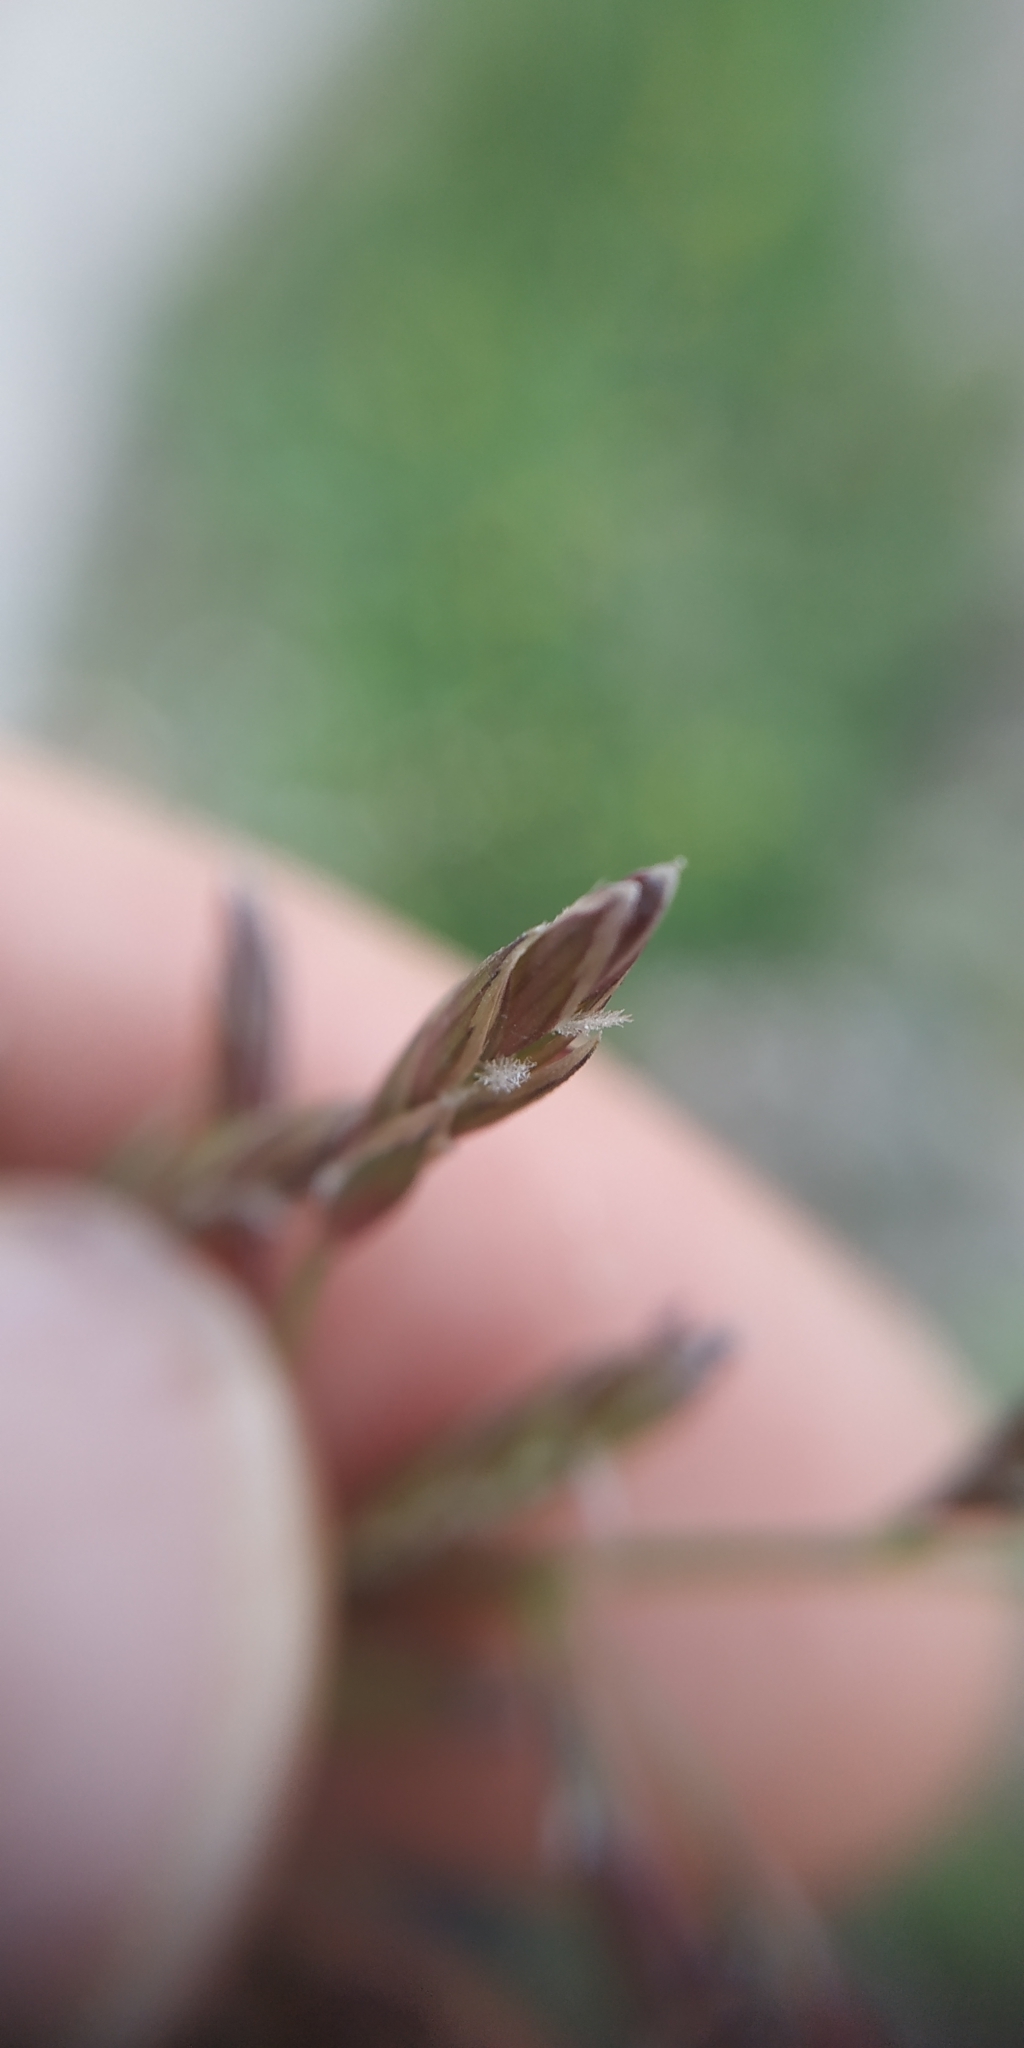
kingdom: Plantae
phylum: Tracheophyta
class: Liliopsida
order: Poales
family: Poaceae
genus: Lolium
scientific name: Lolium pratense
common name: Dover grass
